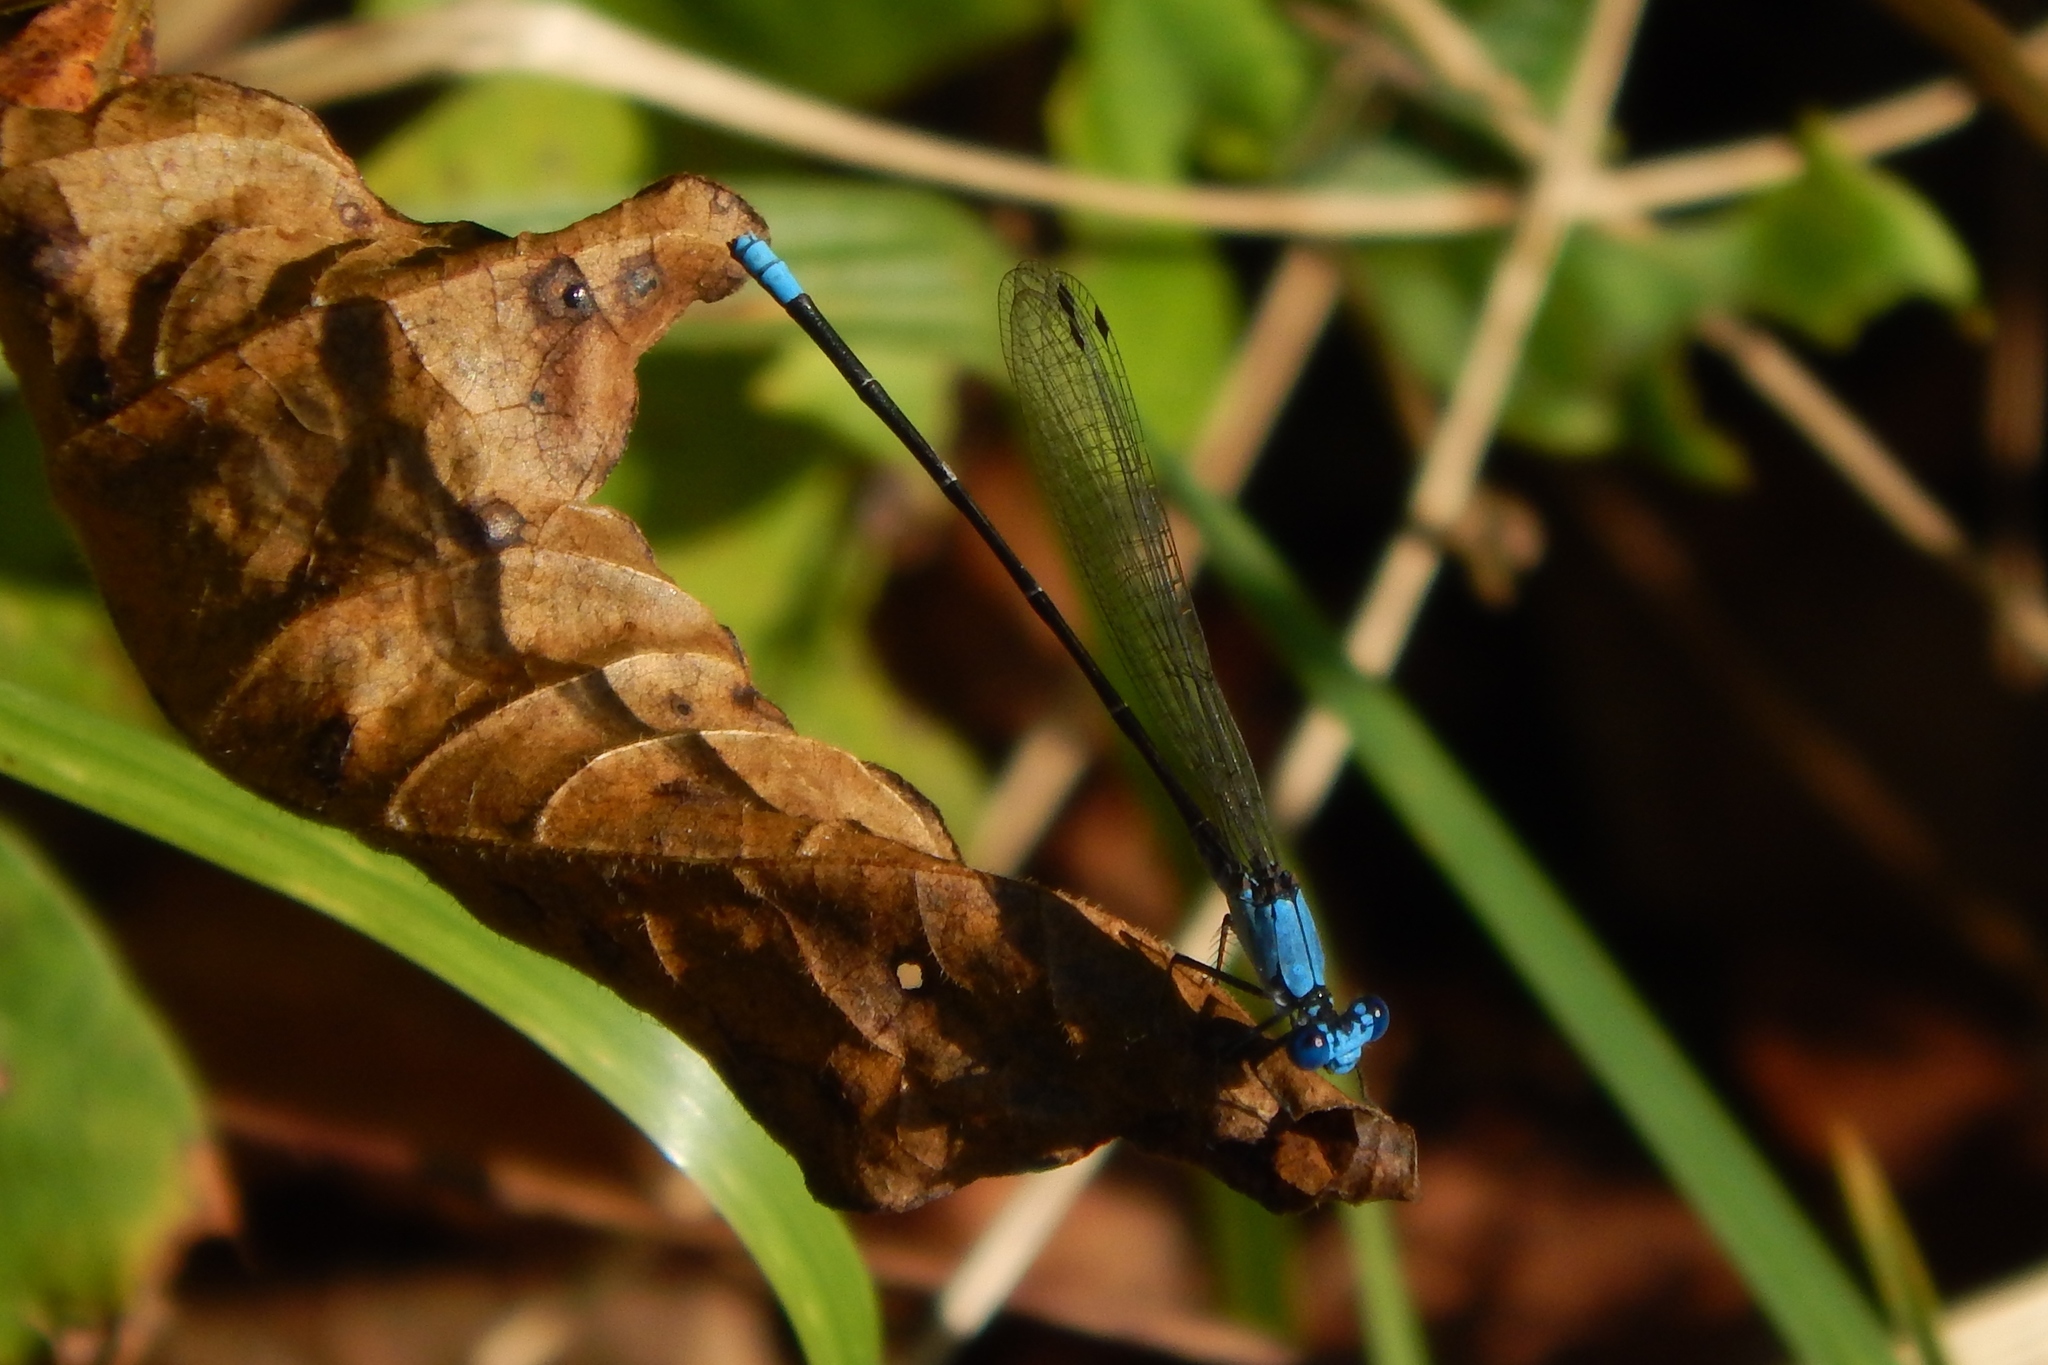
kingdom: Animalia
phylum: Arthropoda
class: Insecta
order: Odonata
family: Coenagrionidae
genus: Argia
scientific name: Argia apicalis
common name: Blue-fronted dancer
